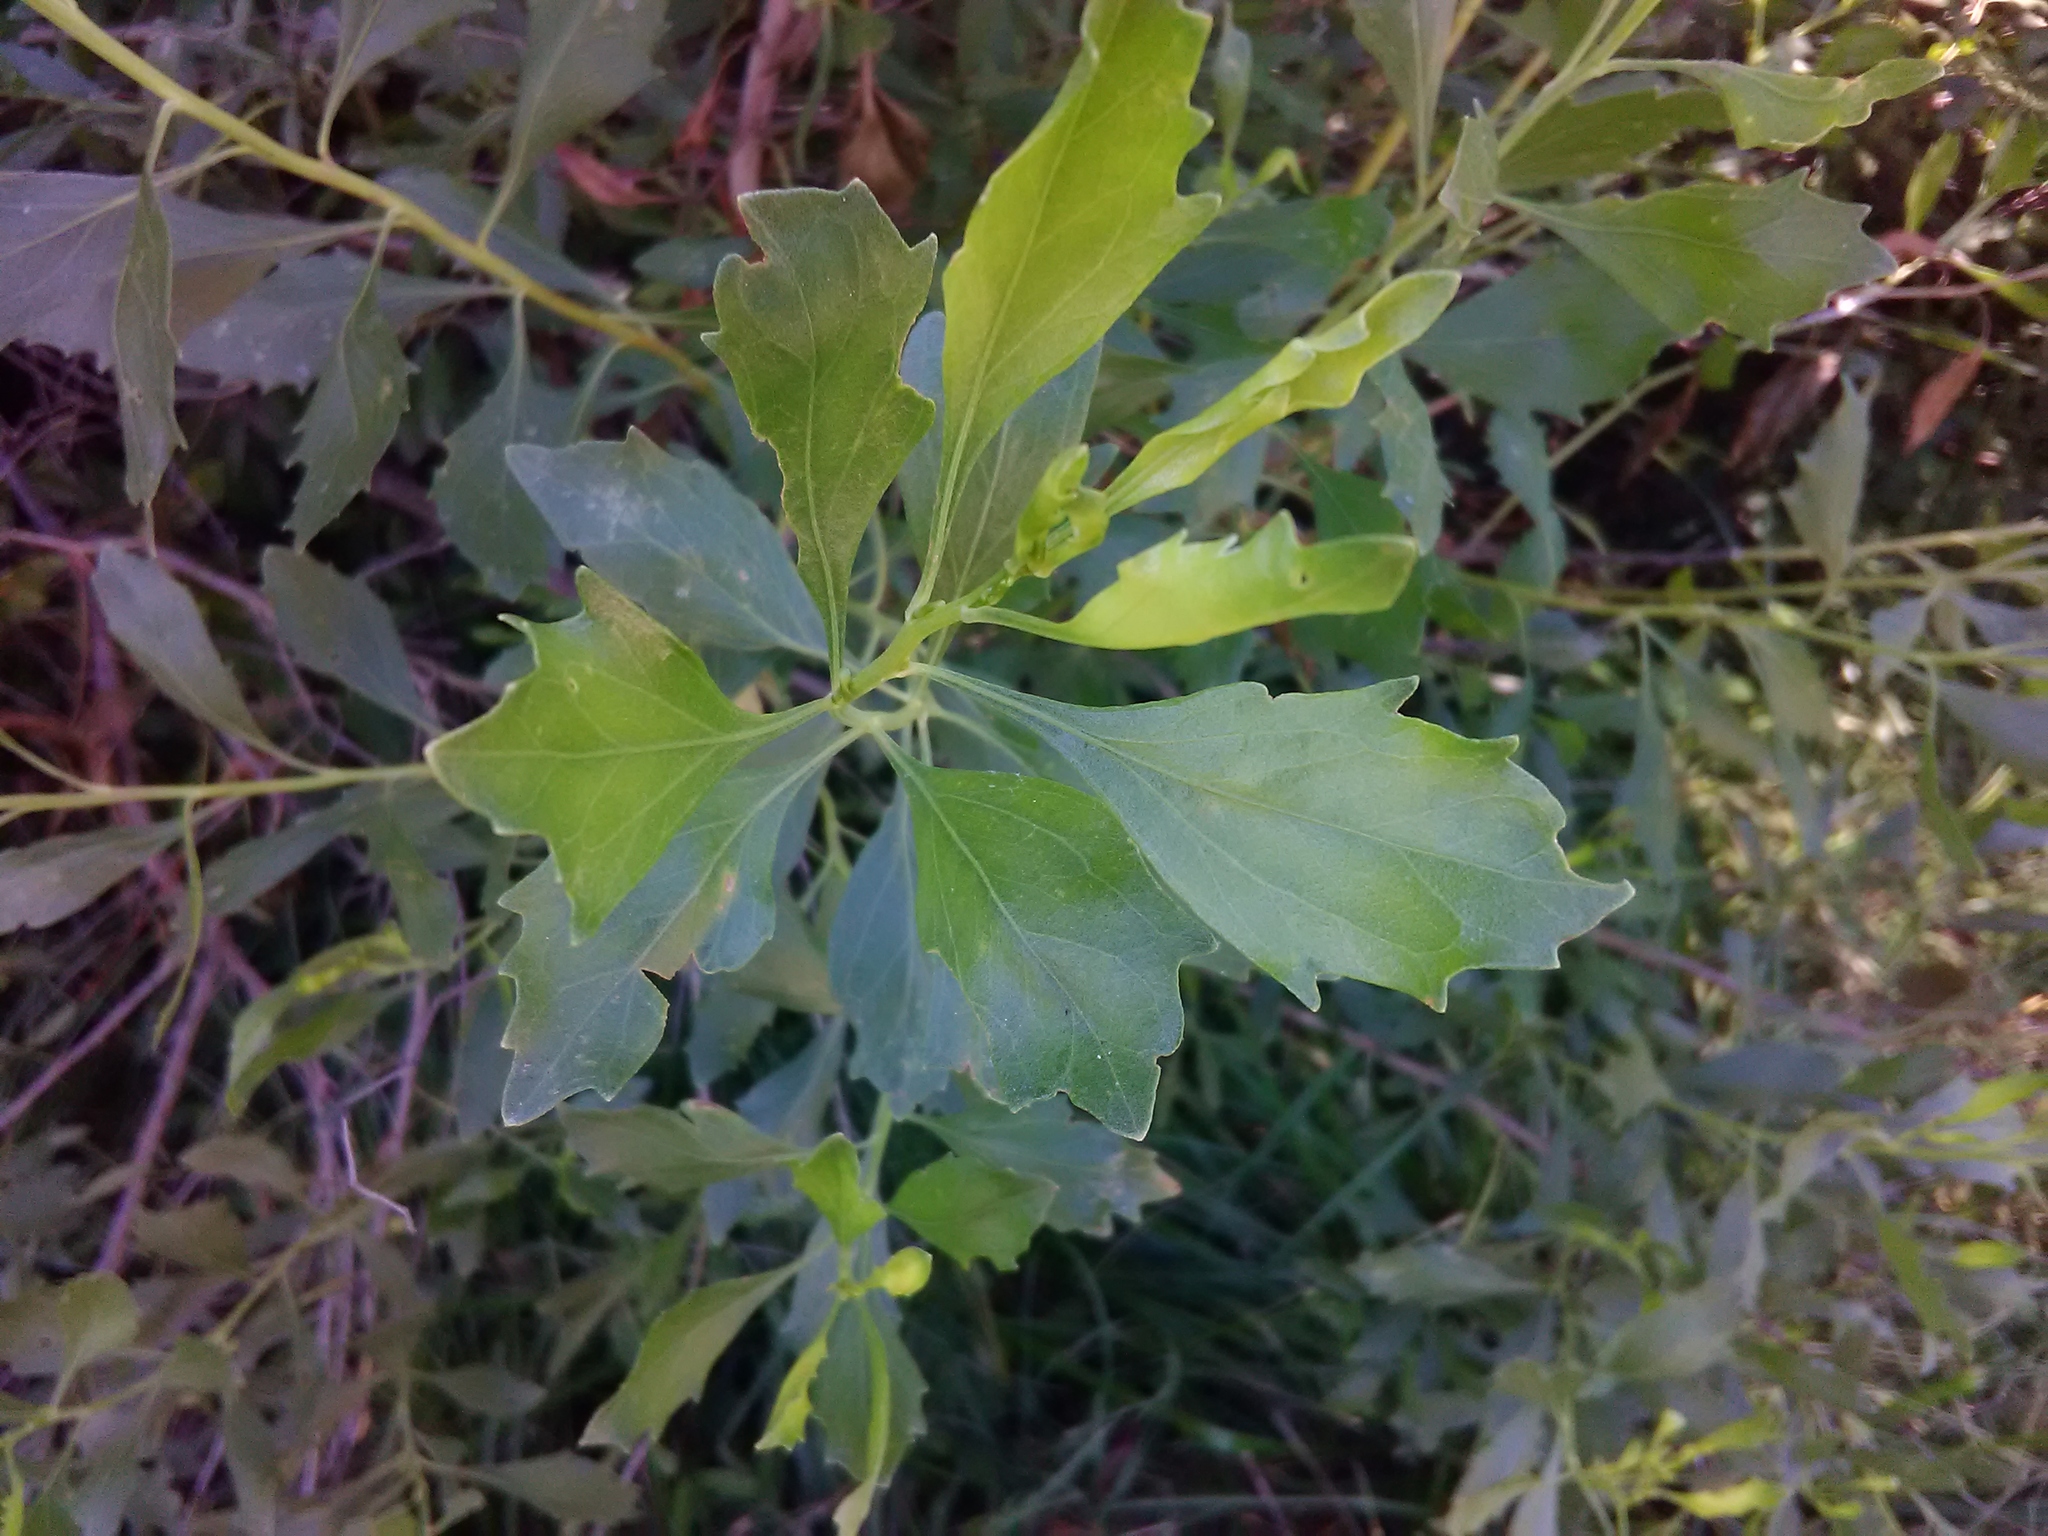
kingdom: Plantae
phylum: Tracheophyta
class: Magnoliopsida
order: Asterales
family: Asteraceae
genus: Baccharis
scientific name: Baccharis halimifolia
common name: Eastern baccharis
